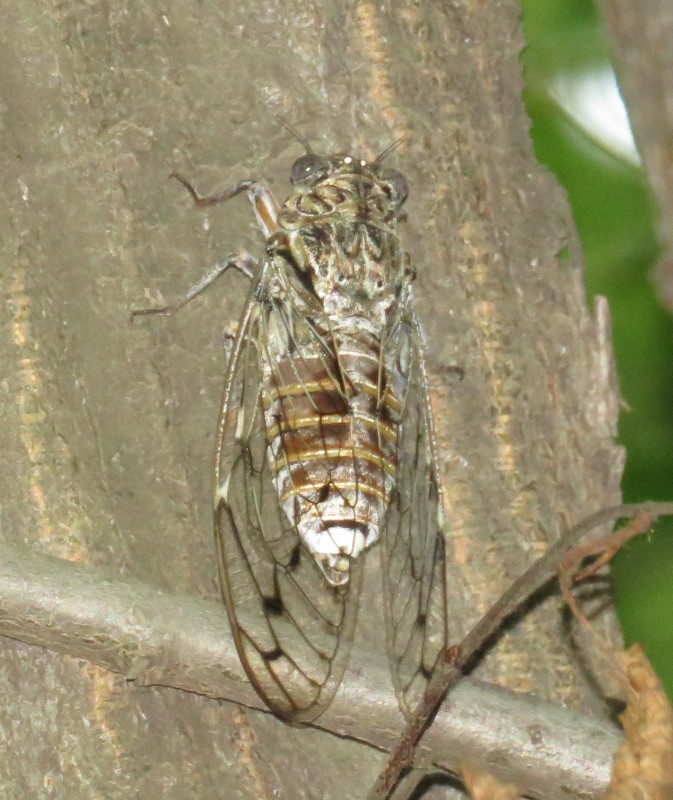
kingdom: Animalia
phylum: Arthropoda
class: Insecta
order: Hemiptera
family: Cicadidae
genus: Cicada
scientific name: Cicada orni
